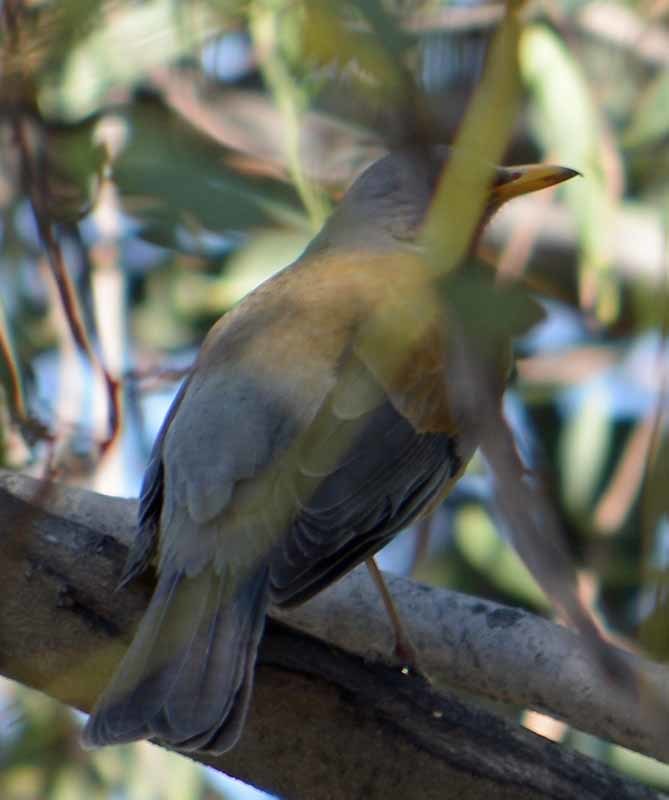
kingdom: Animalia
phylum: Chordata
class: Aves
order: Passeriformes
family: Turdidae
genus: Turdus
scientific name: Turdus rufopalliatus
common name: Rufous-backed robin
